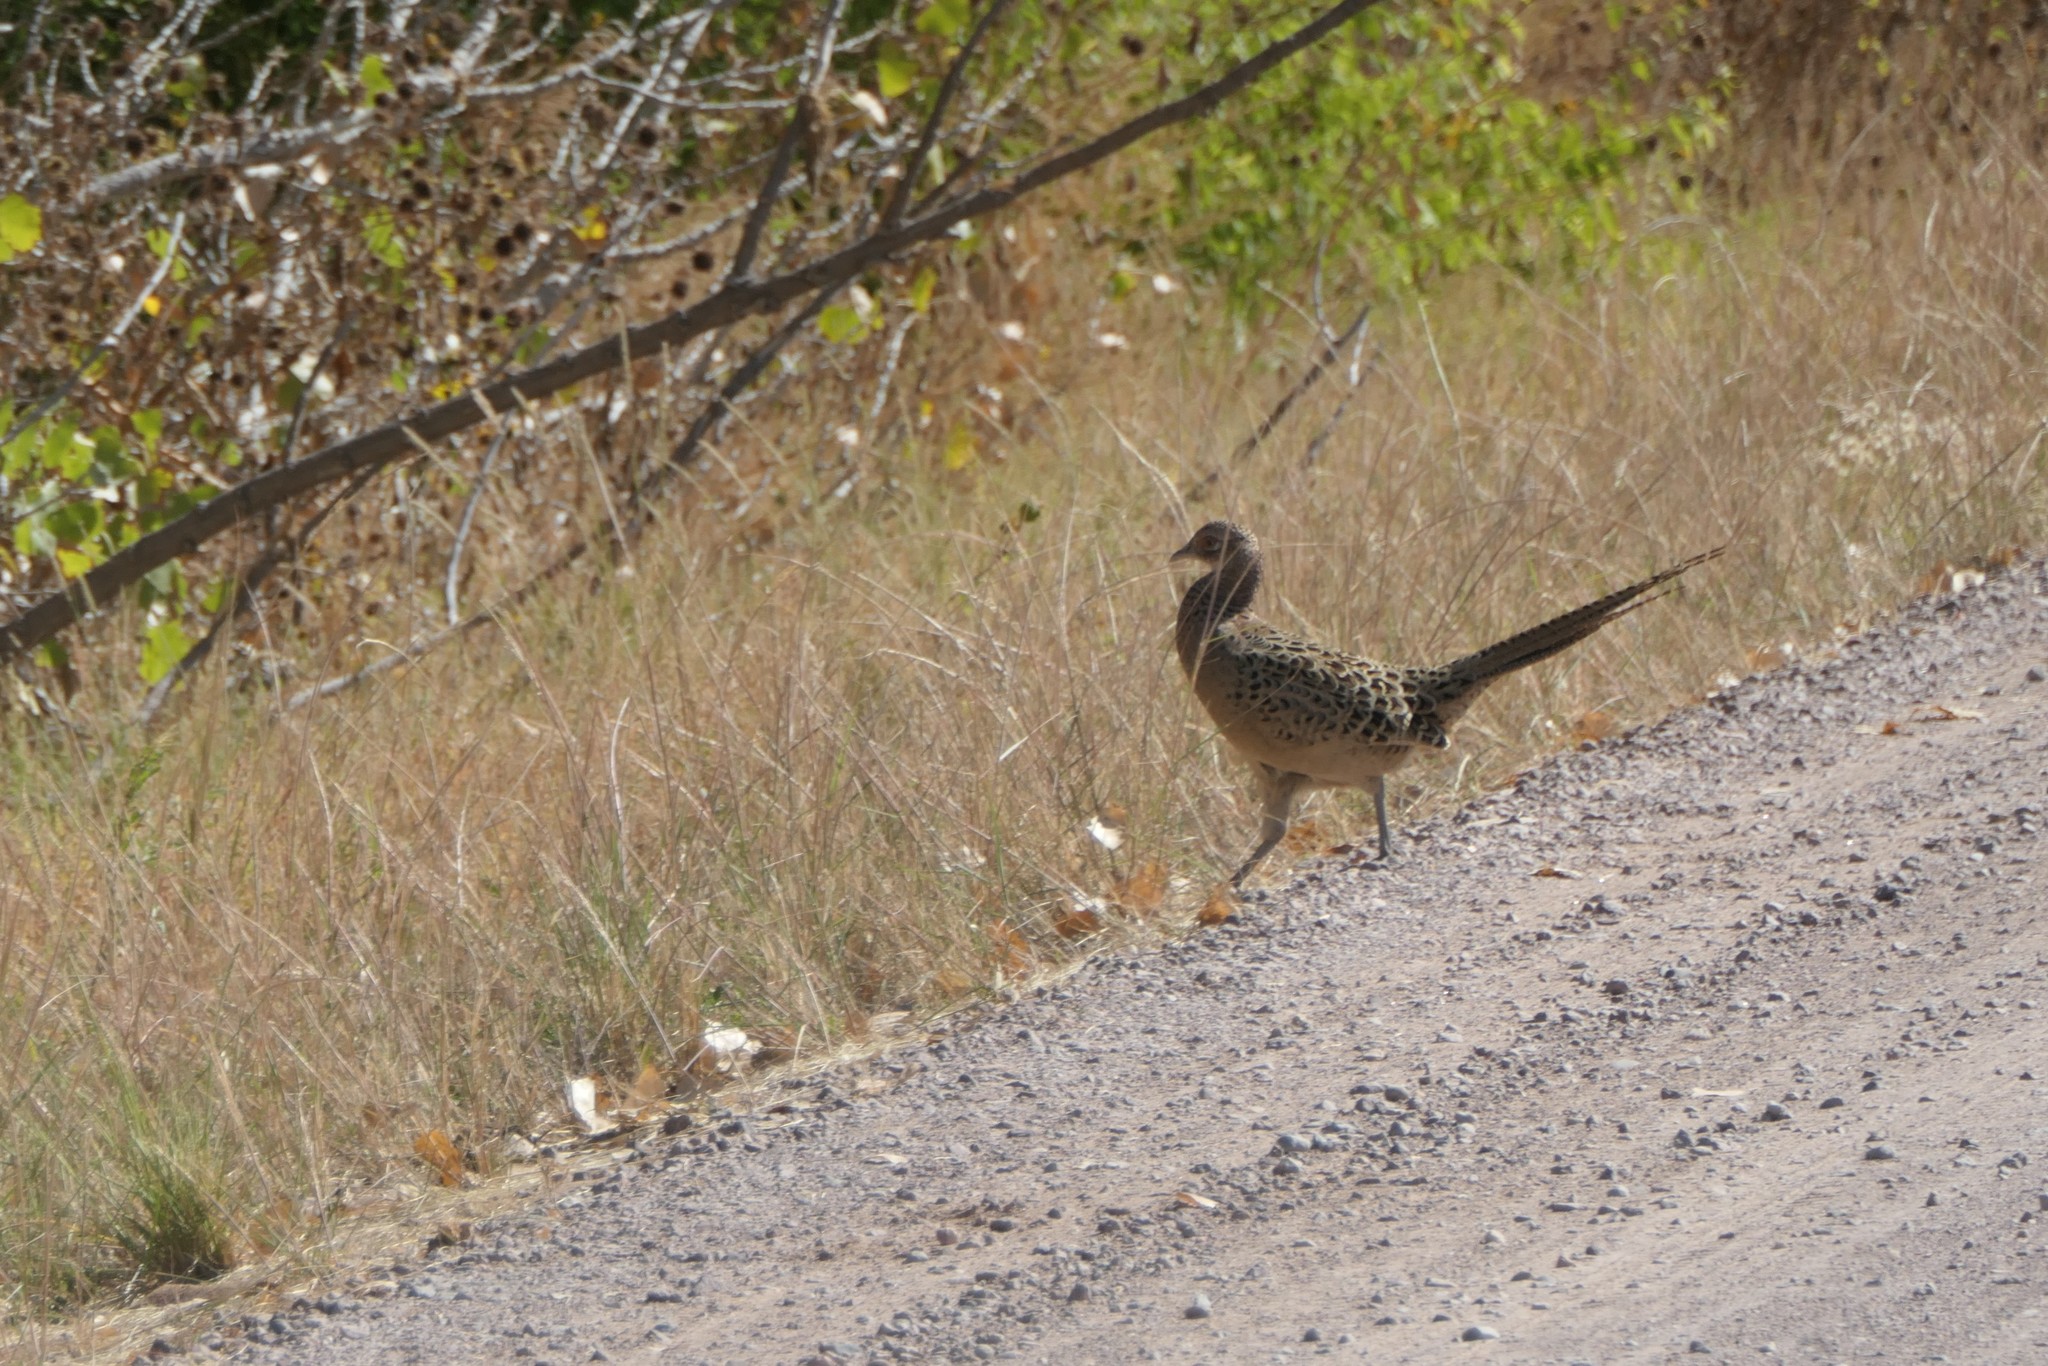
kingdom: Animalia
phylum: Chordata
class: Aves
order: Galliformes
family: Phasianidae
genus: Phasianus
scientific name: Phasianus colchicus
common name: Common pheasant
